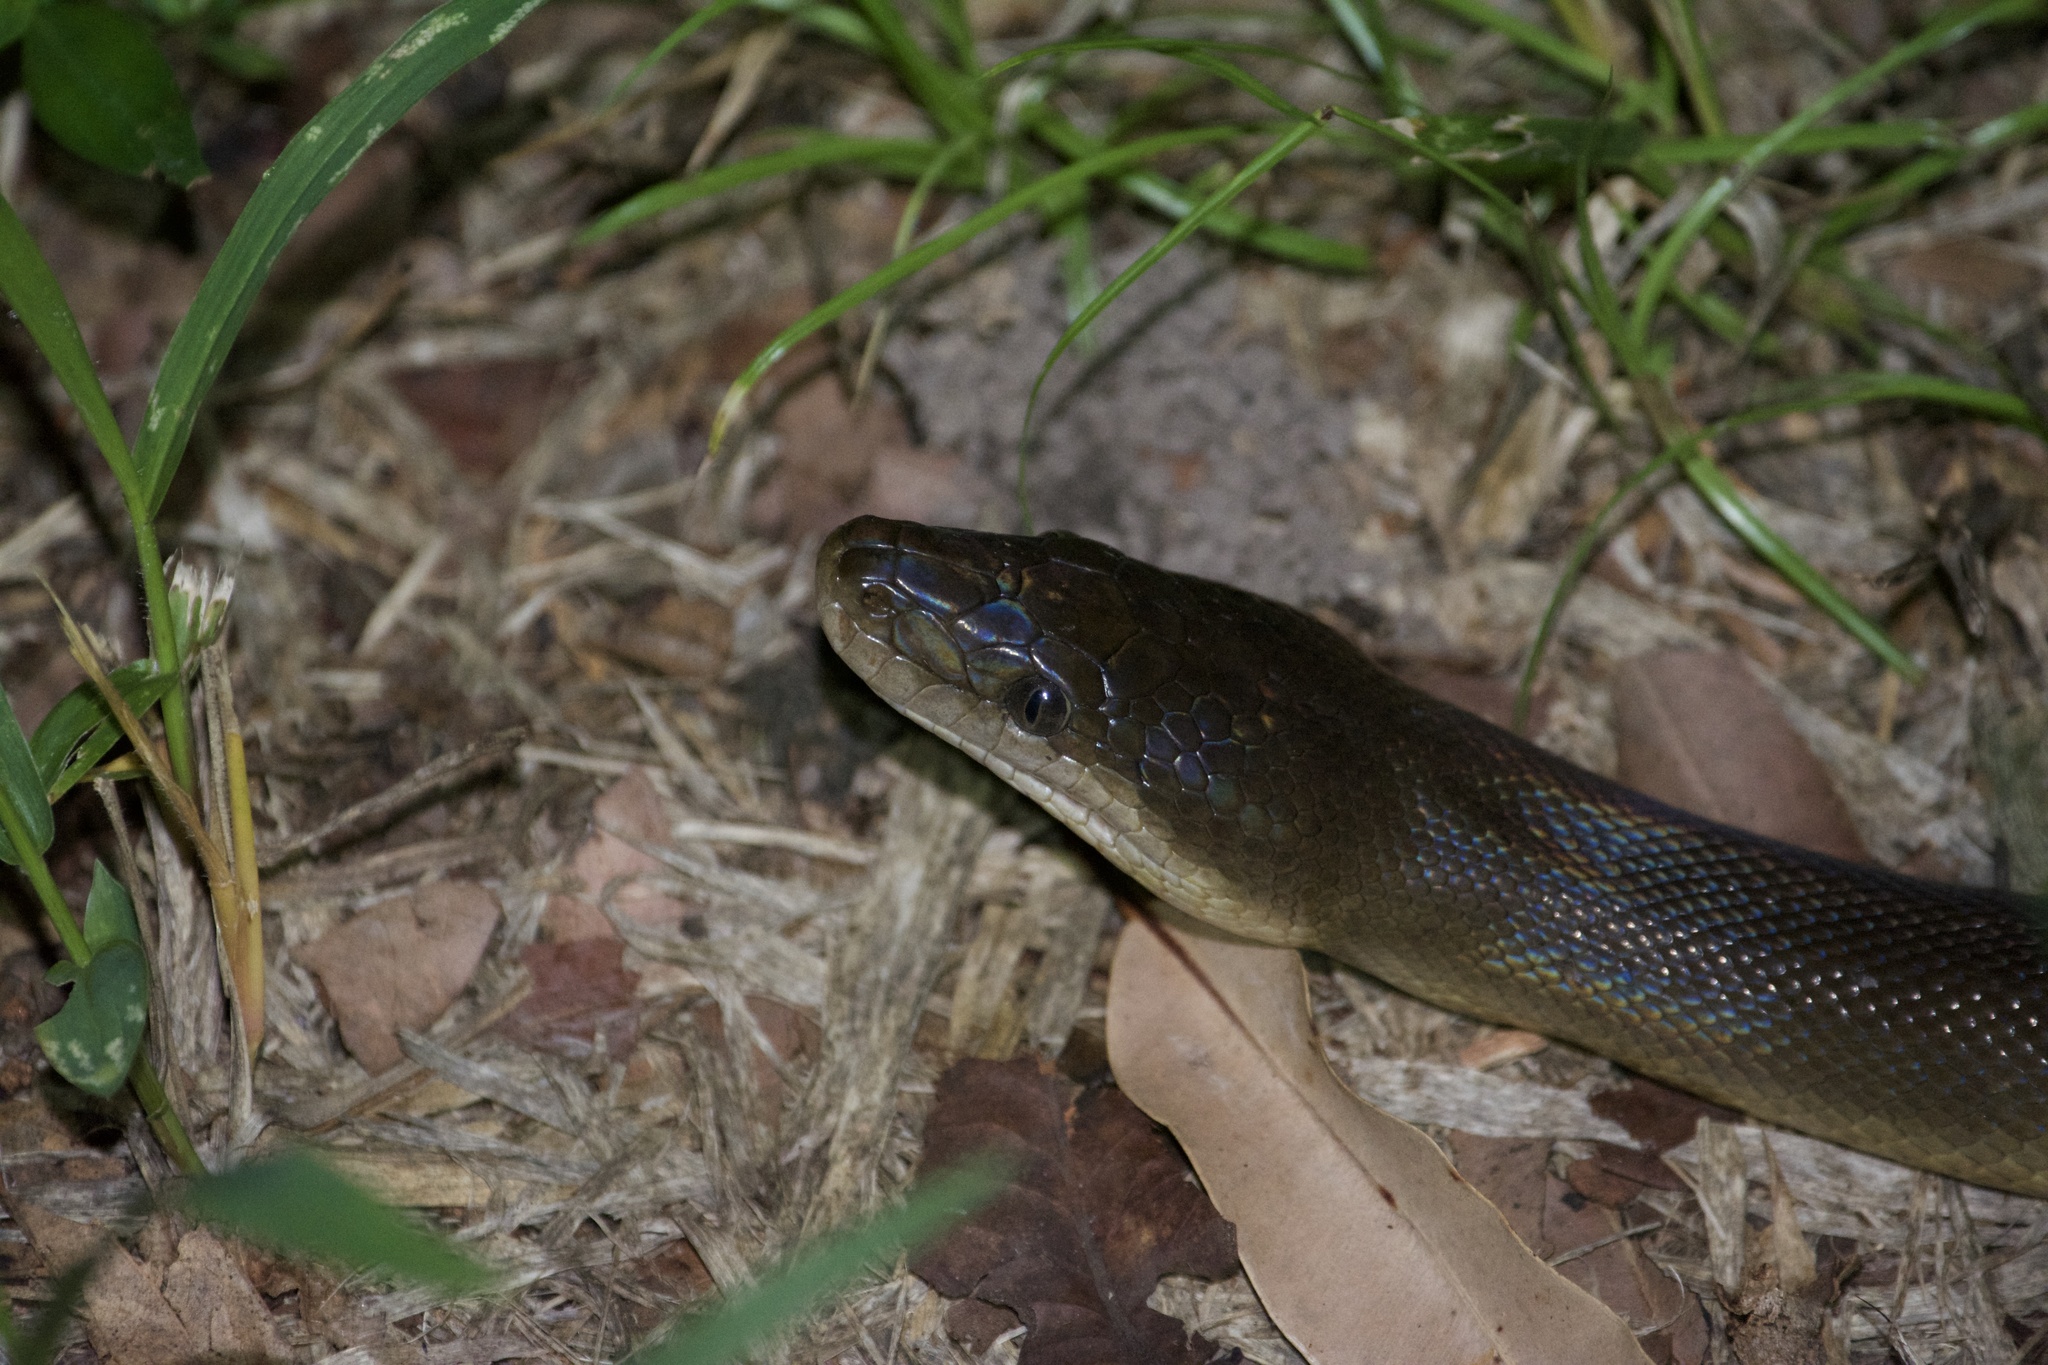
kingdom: Animalia
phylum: Chordata
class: Squamata
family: Pythonidae
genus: Liasis
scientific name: Liasis fuscus
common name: Brown water python
